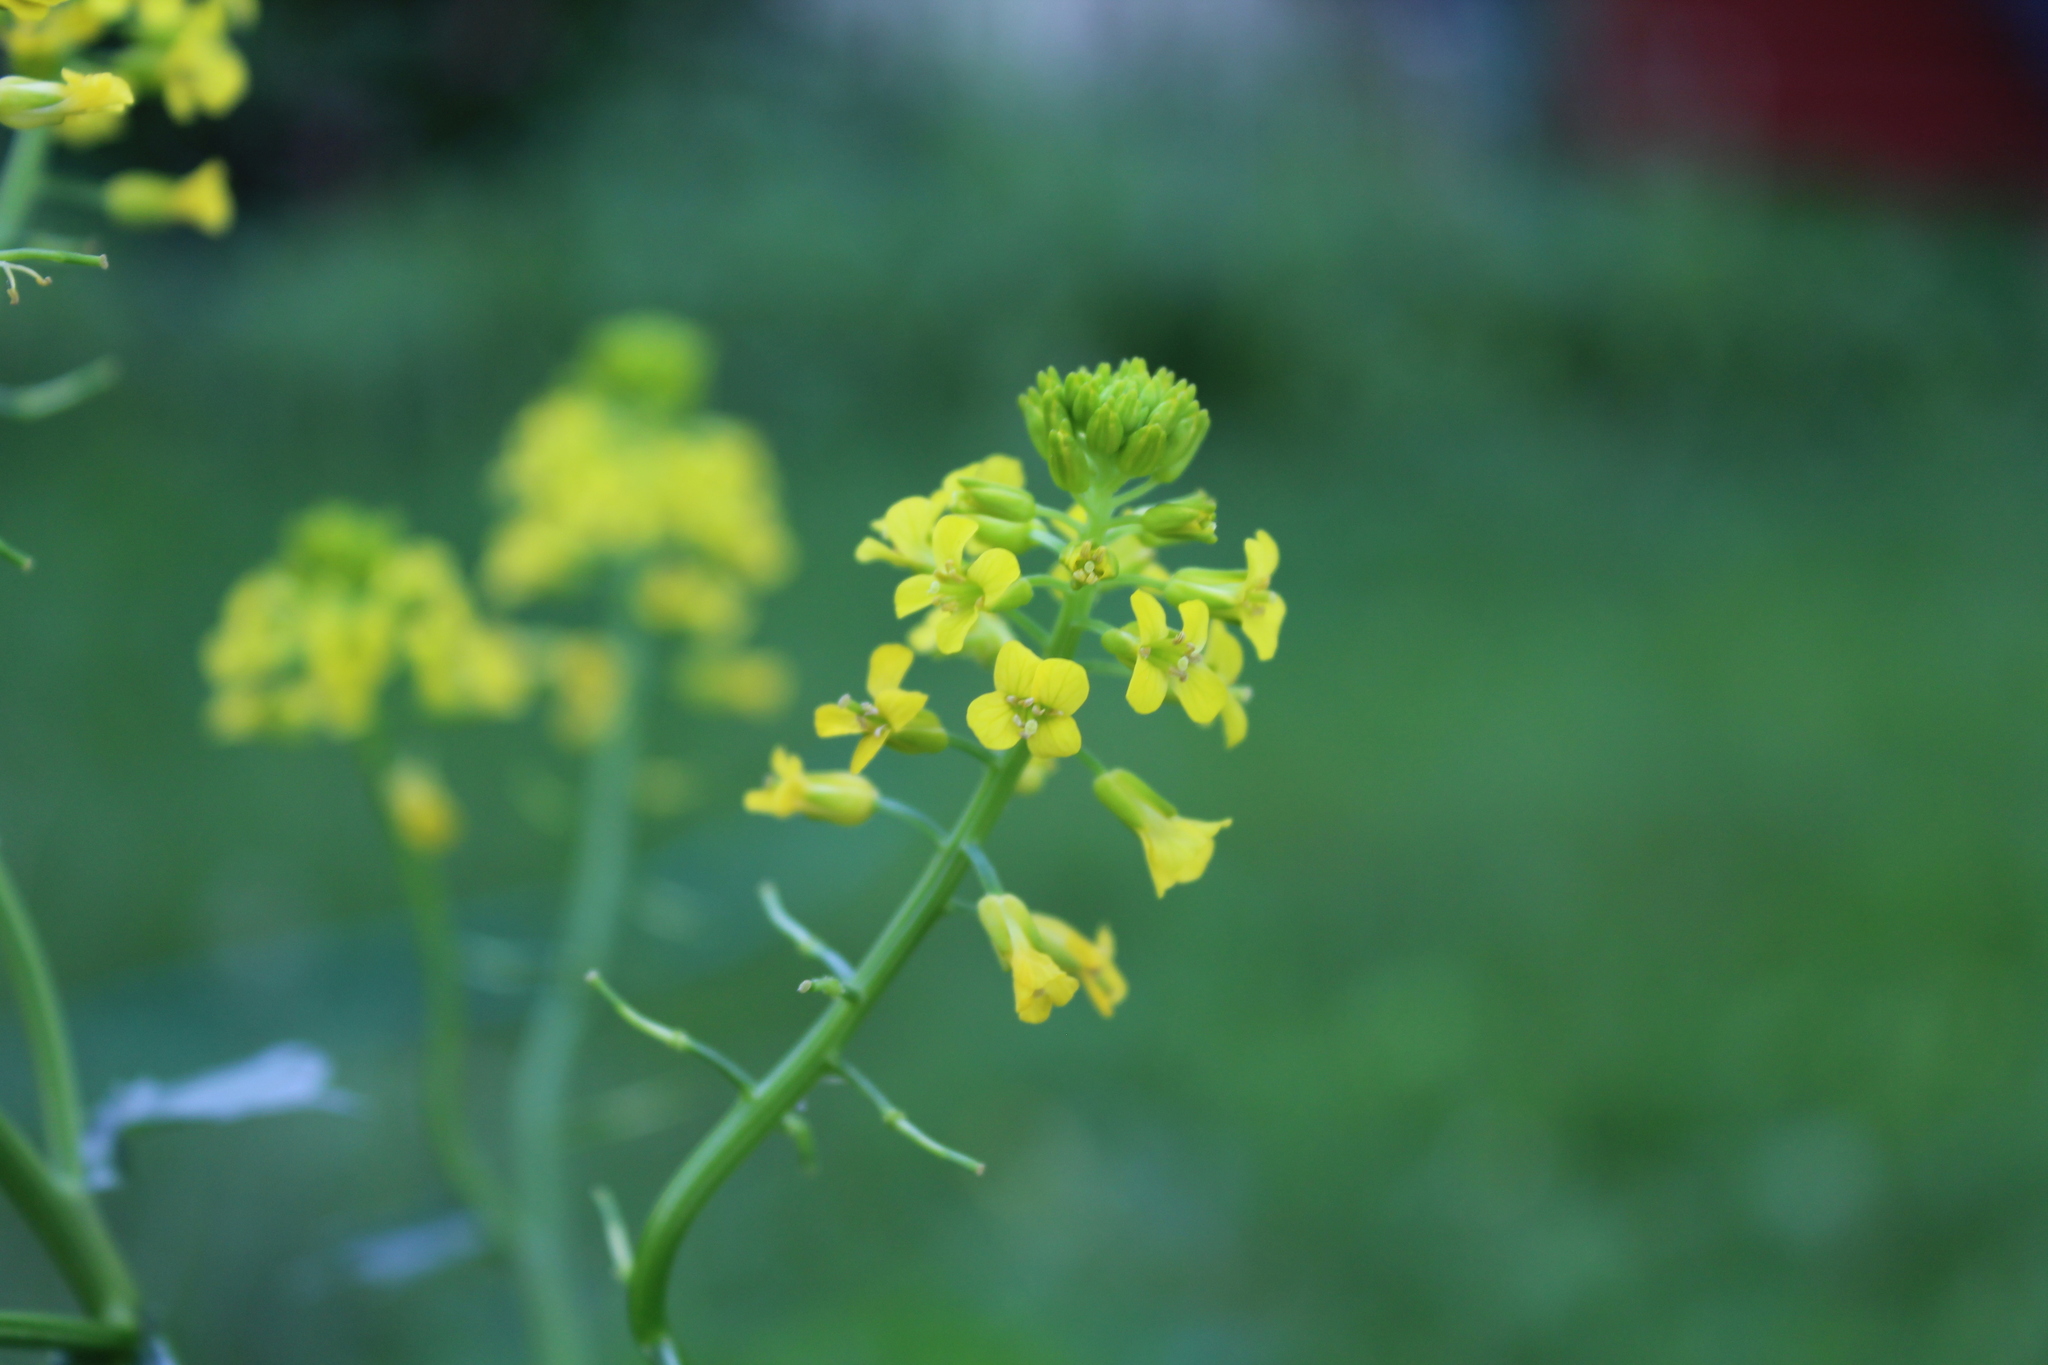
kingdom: Plantae
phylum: Tracheophyta
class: Magnoliopsida
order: Brassicales
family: Brassicaceae
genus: Barbarea
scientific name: Barbarea vulgaris
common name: Cressy-greens
